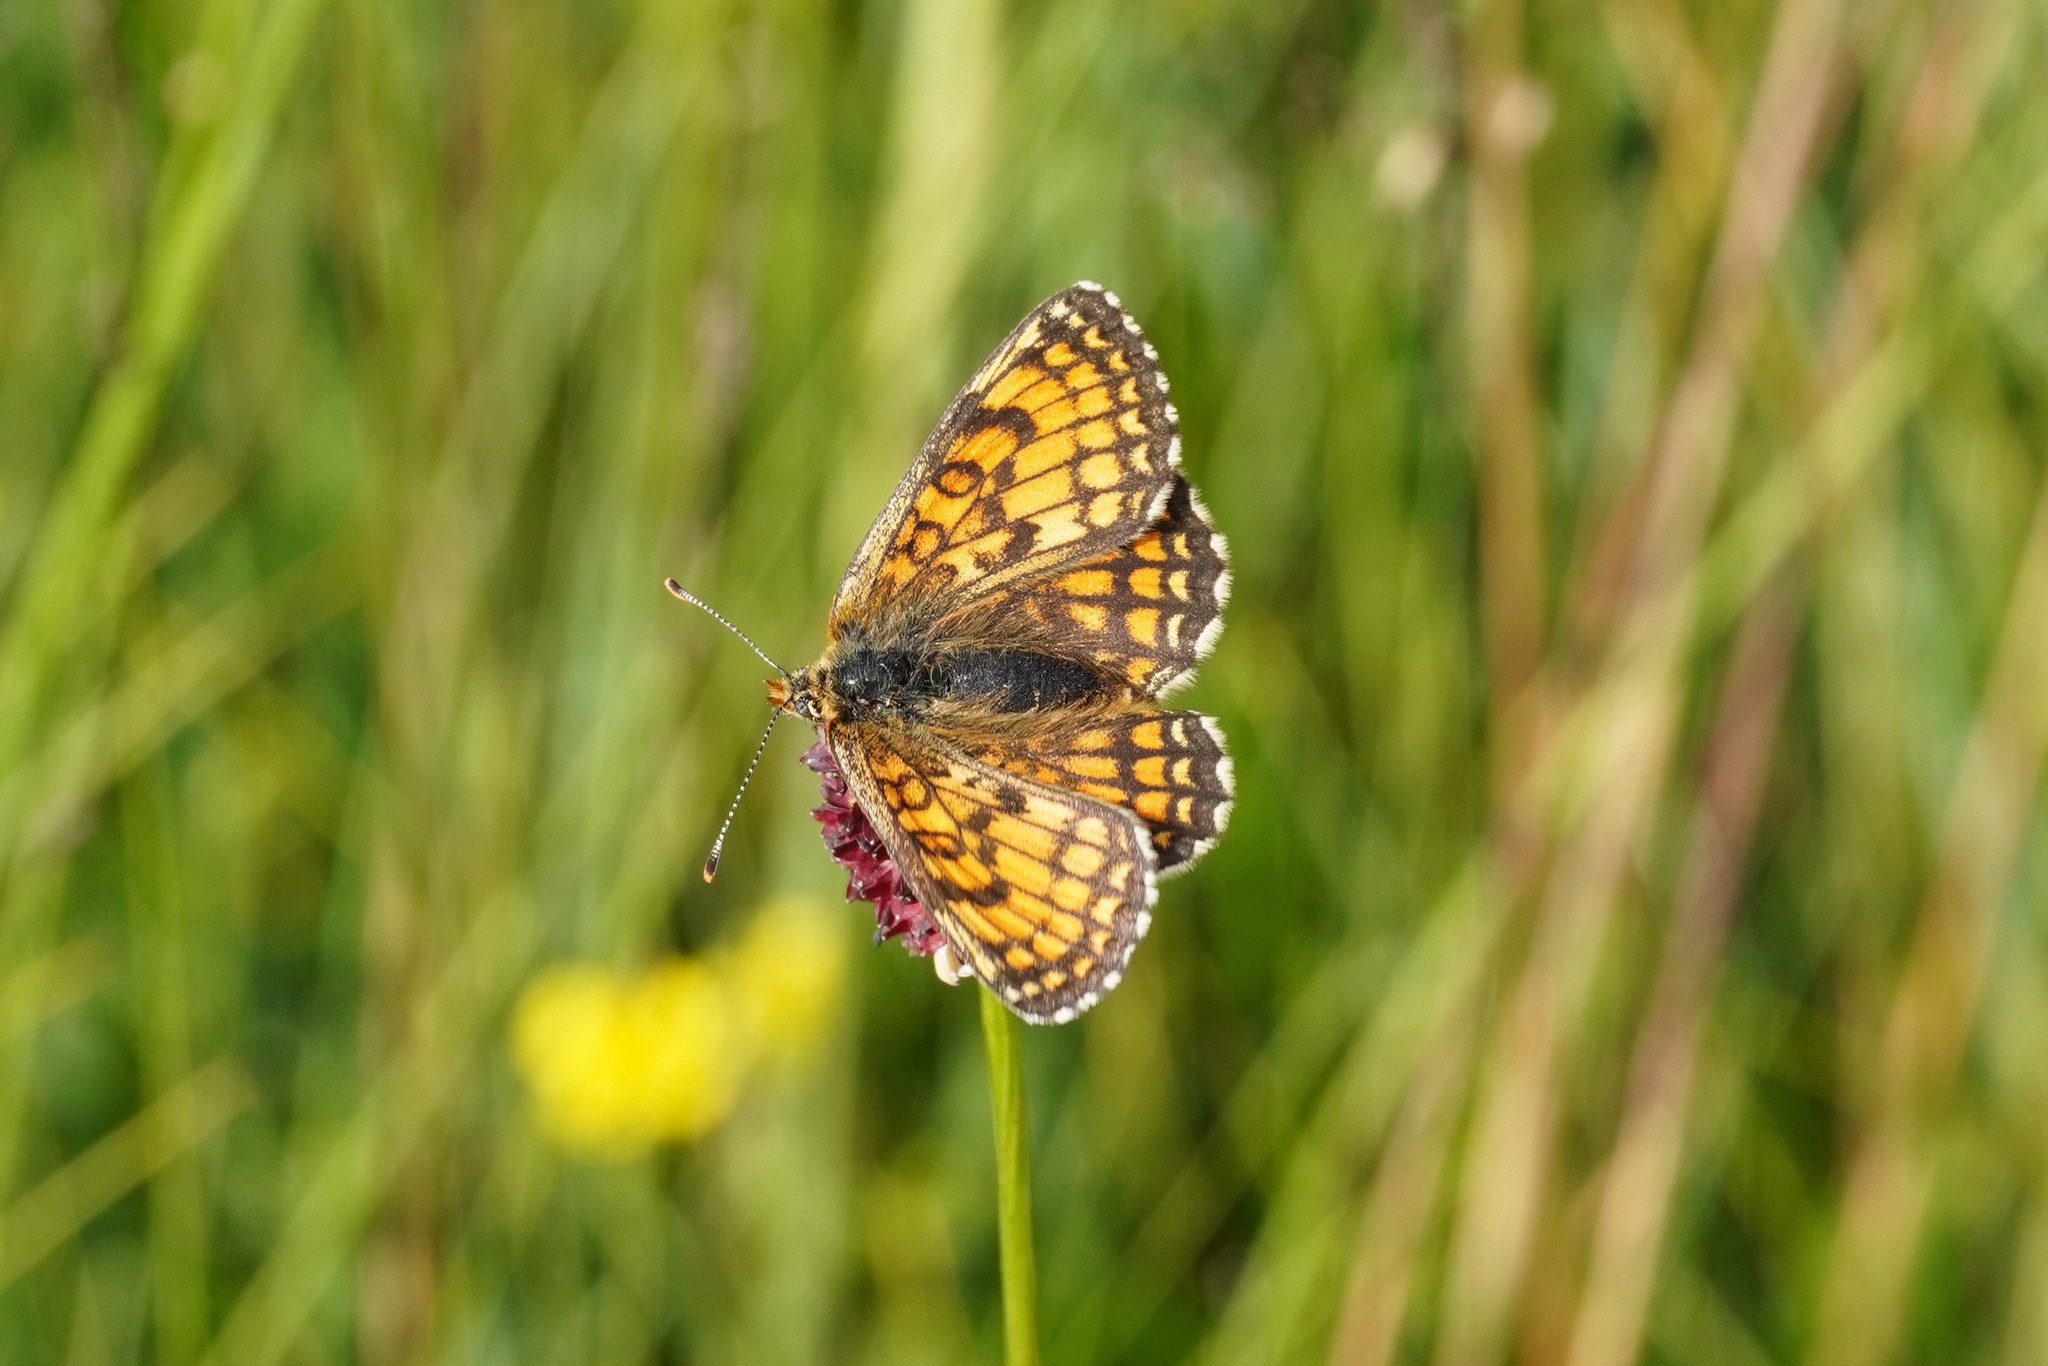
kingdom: Animalia
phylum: Arthropoda
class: Insecta
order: Lepidoptera
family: Nymphalidae
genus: Mellicta
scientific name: Mellicta parthenoides
